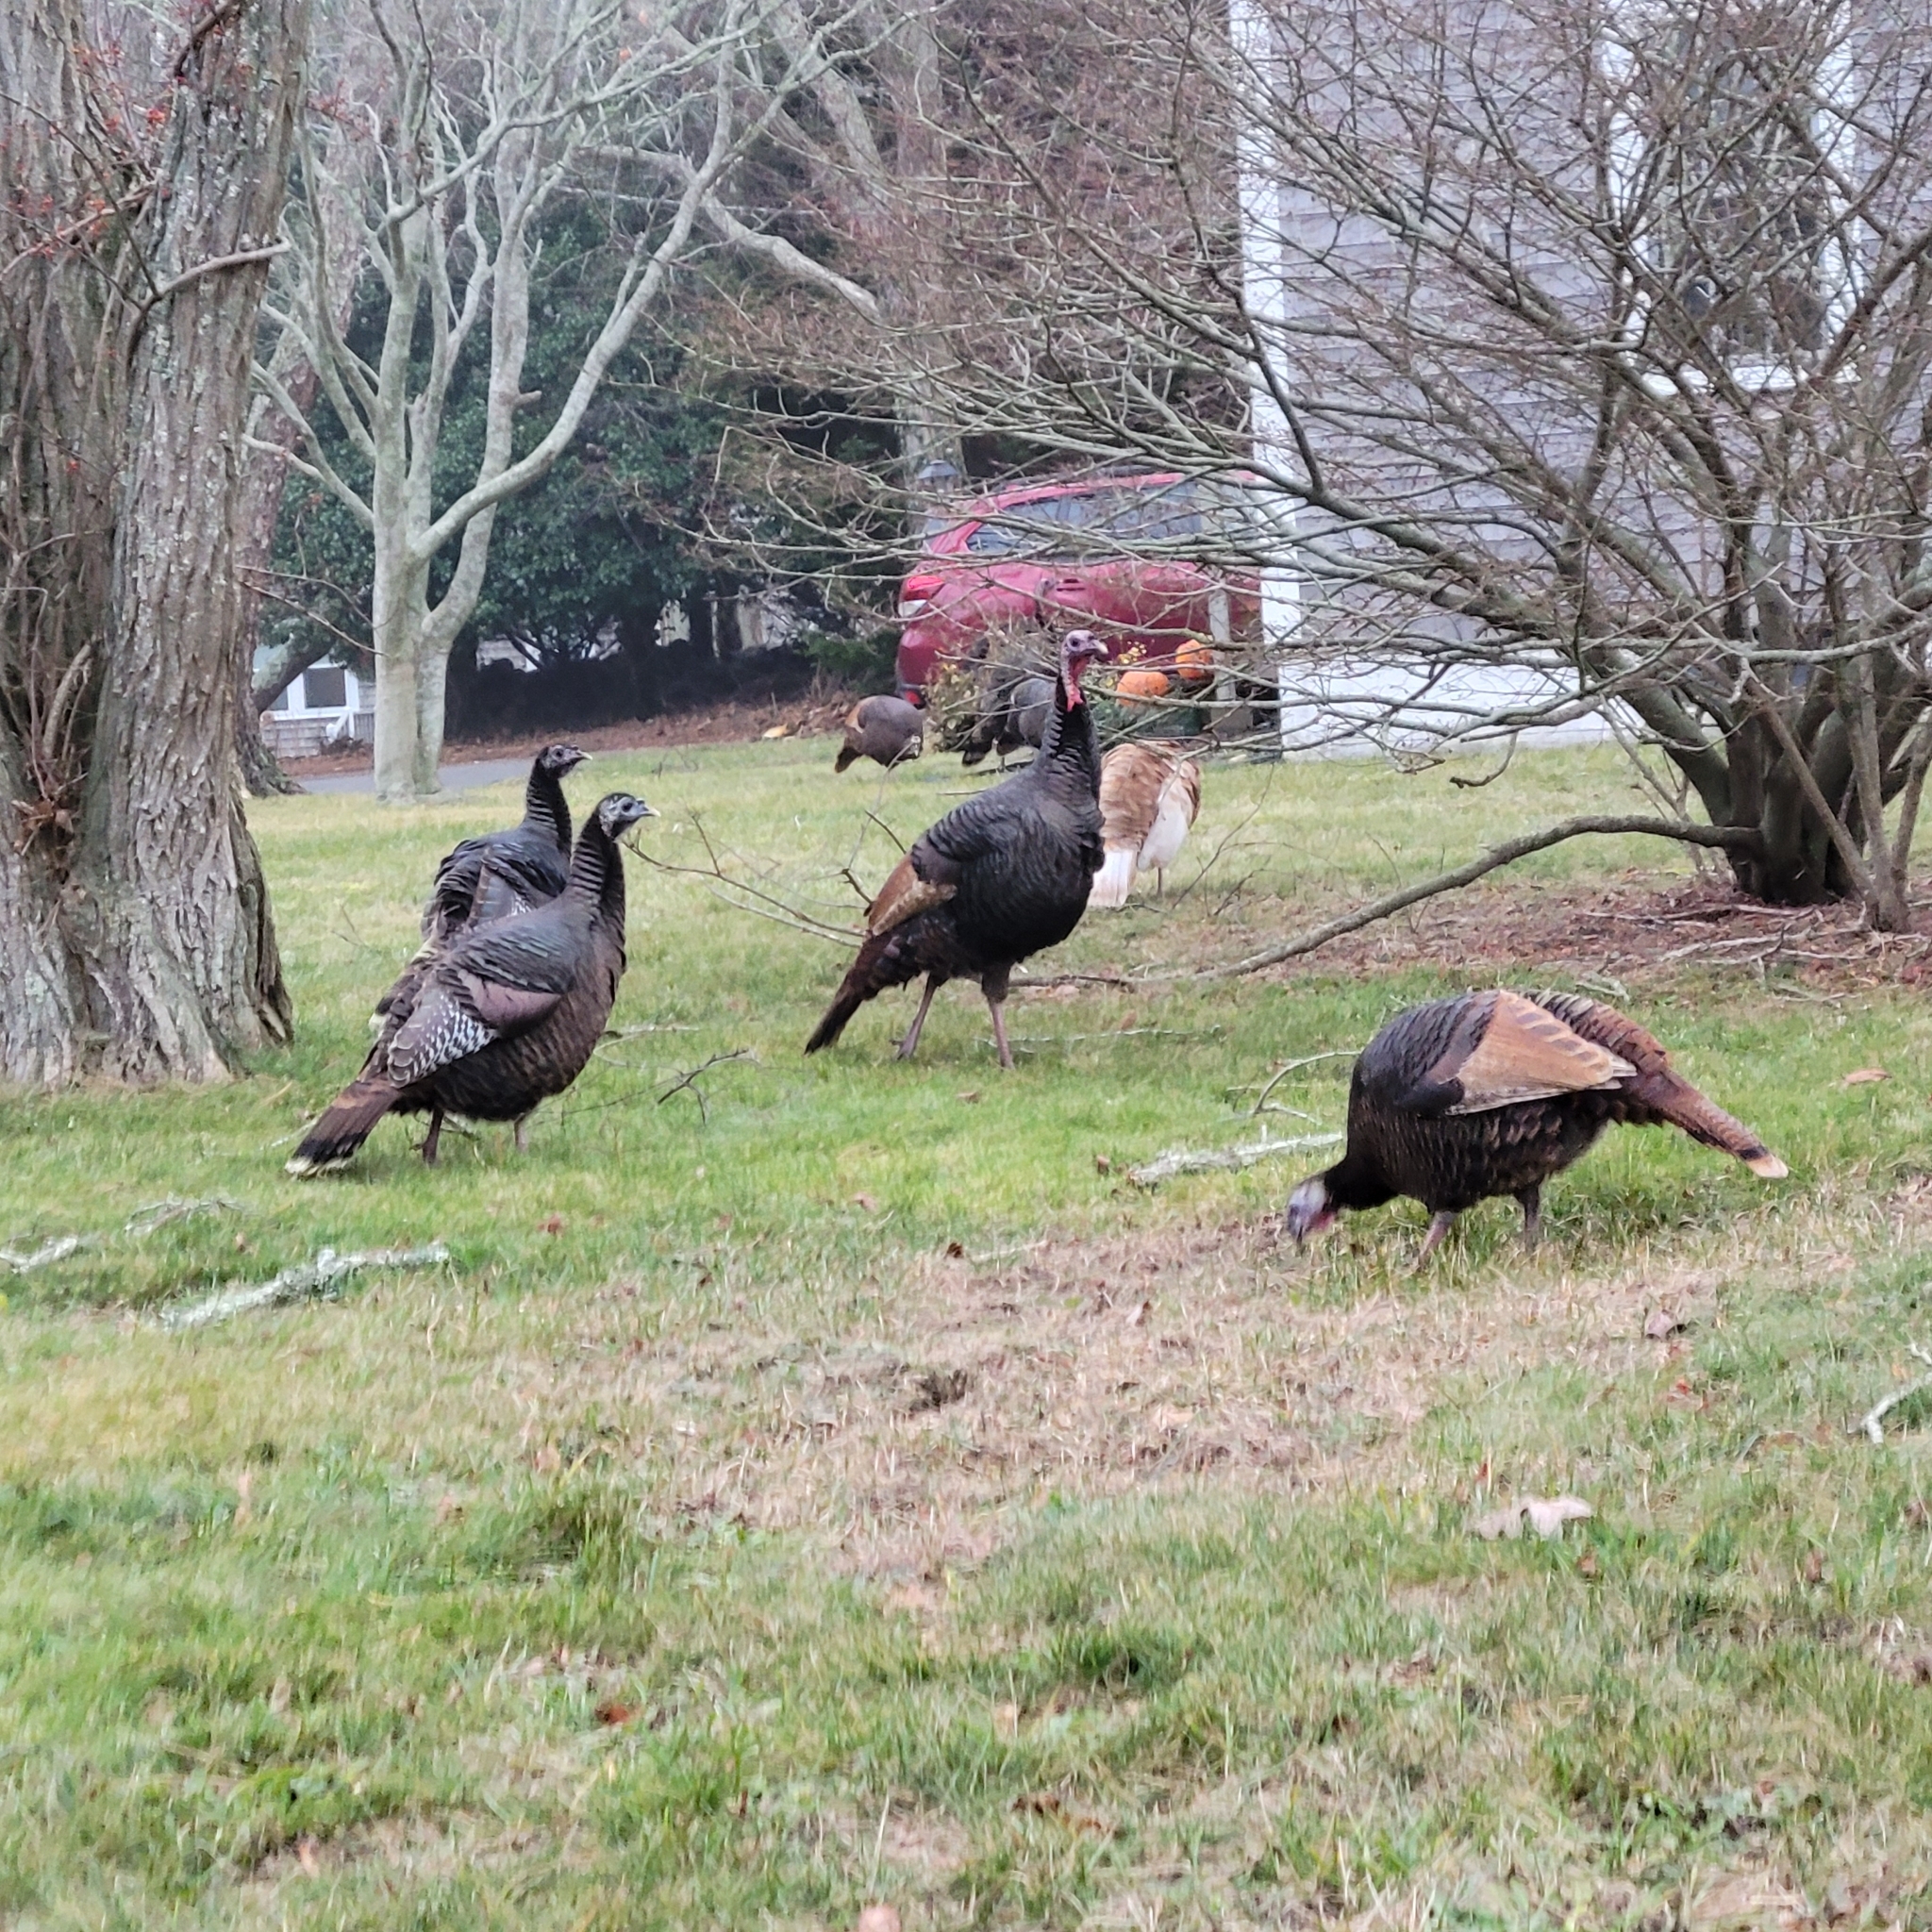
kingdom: Animalia
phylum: Chordata
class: Aves
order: Galliformes
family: Phasianidae
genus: Meleagris
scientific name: Meleagris gallopavo
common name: Wild turkey
